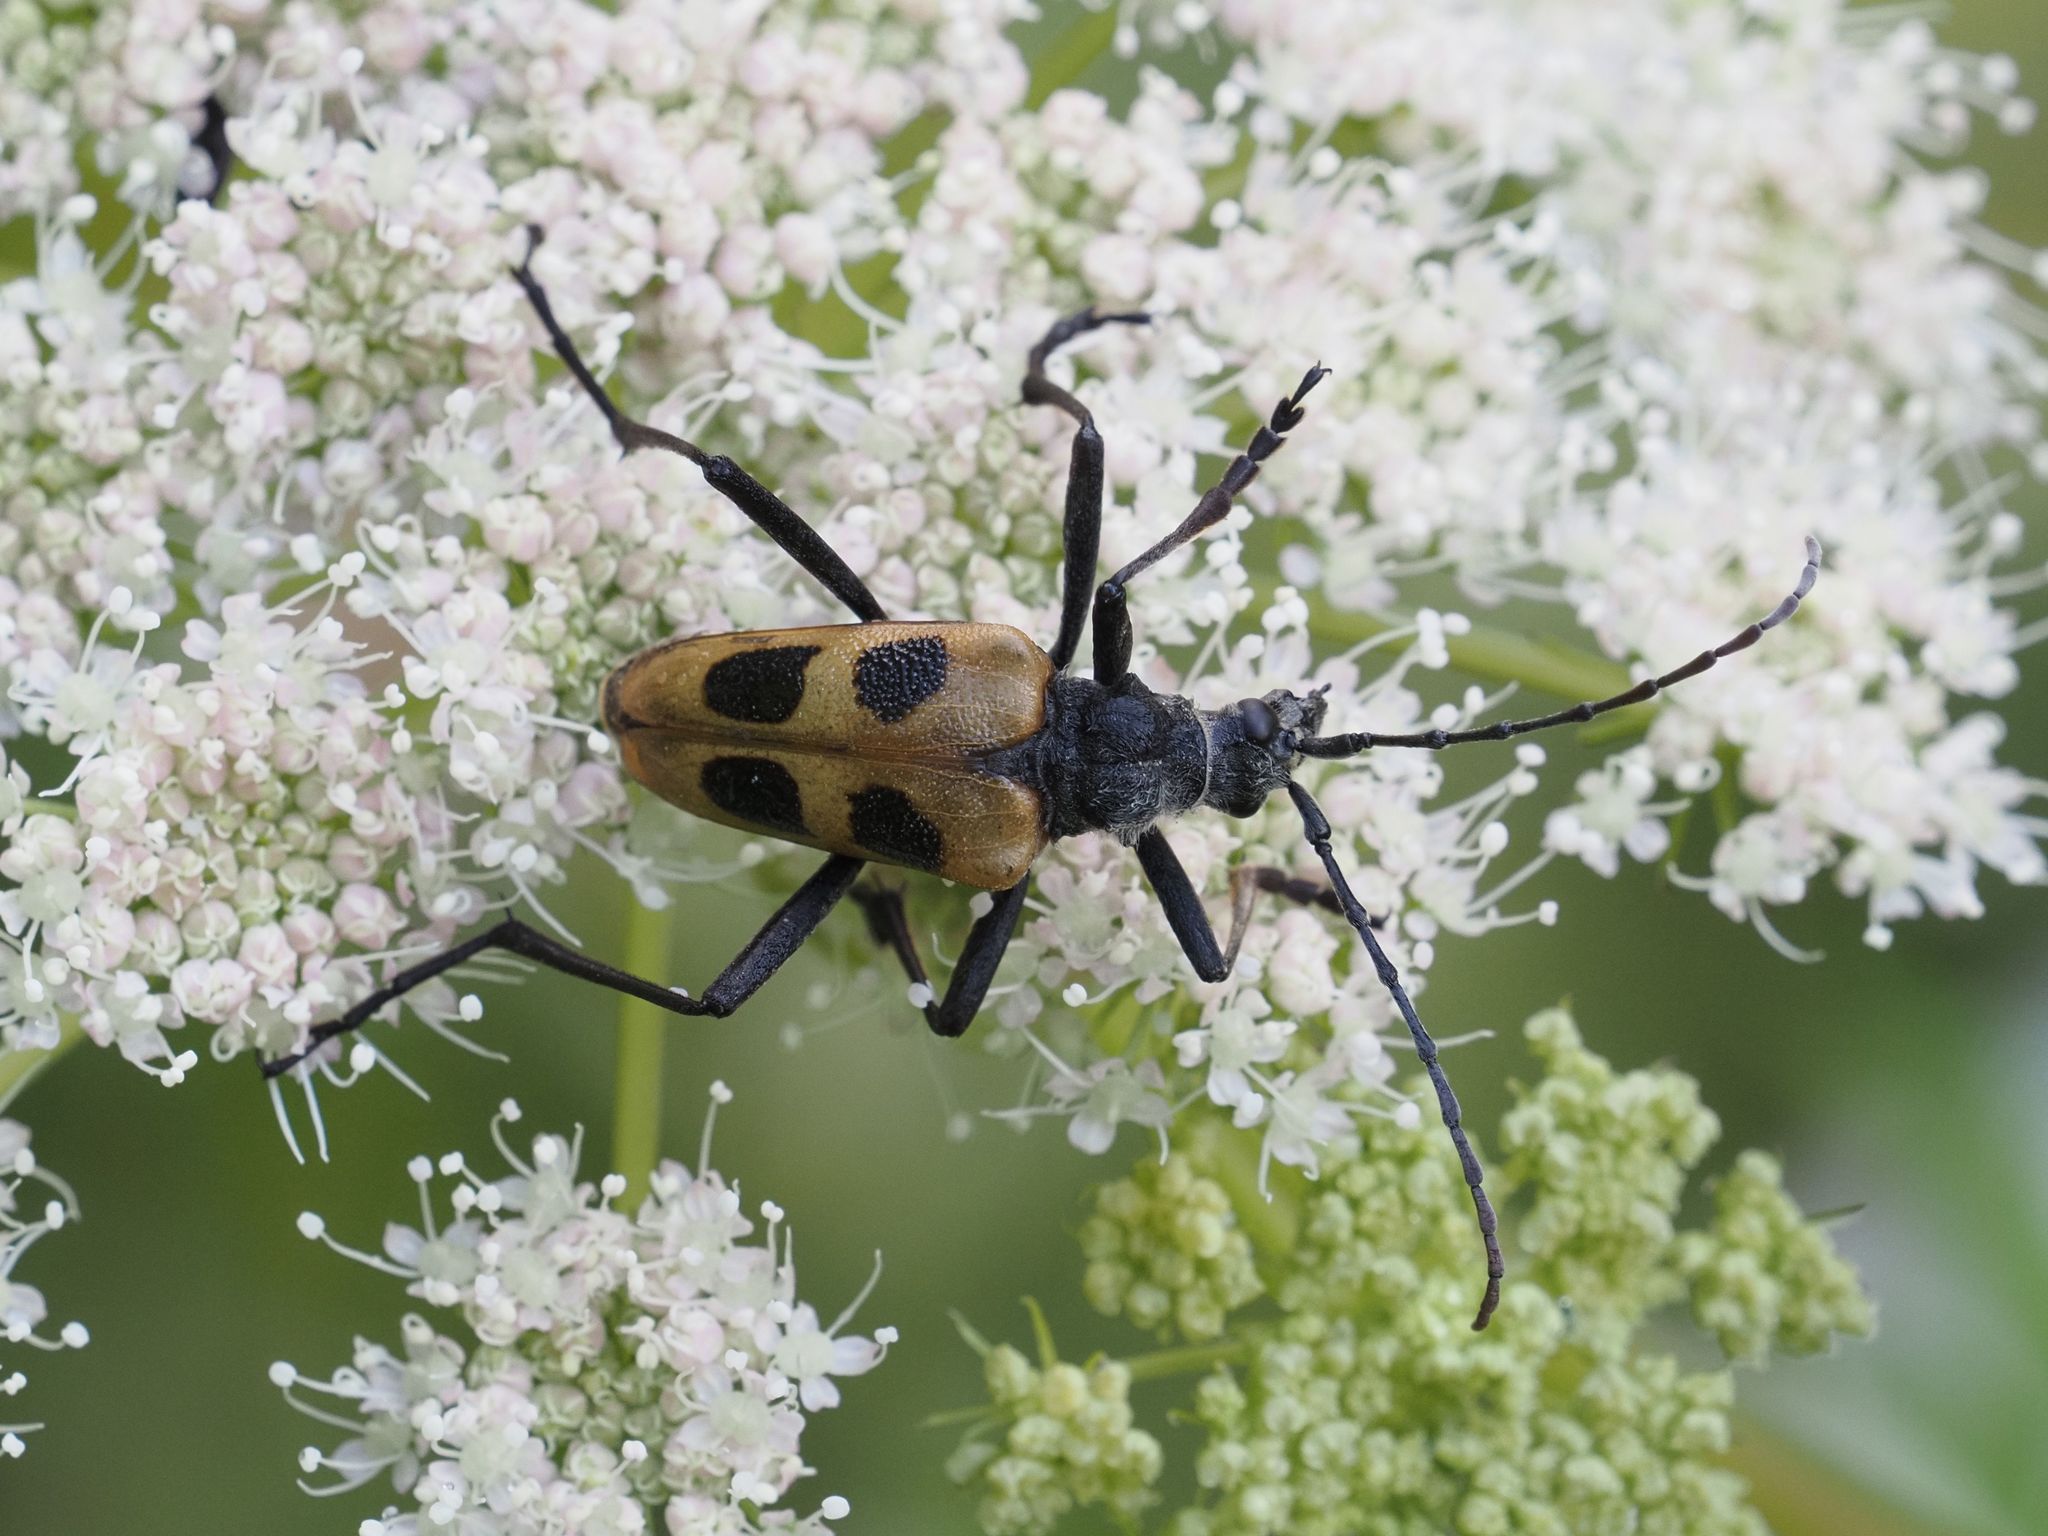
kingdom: Animalia
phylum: Arthropoda
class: Insecta
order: Coleoptera
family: Cerambycidae
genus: Pachyta
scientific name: Pachyta quadrimaculata
